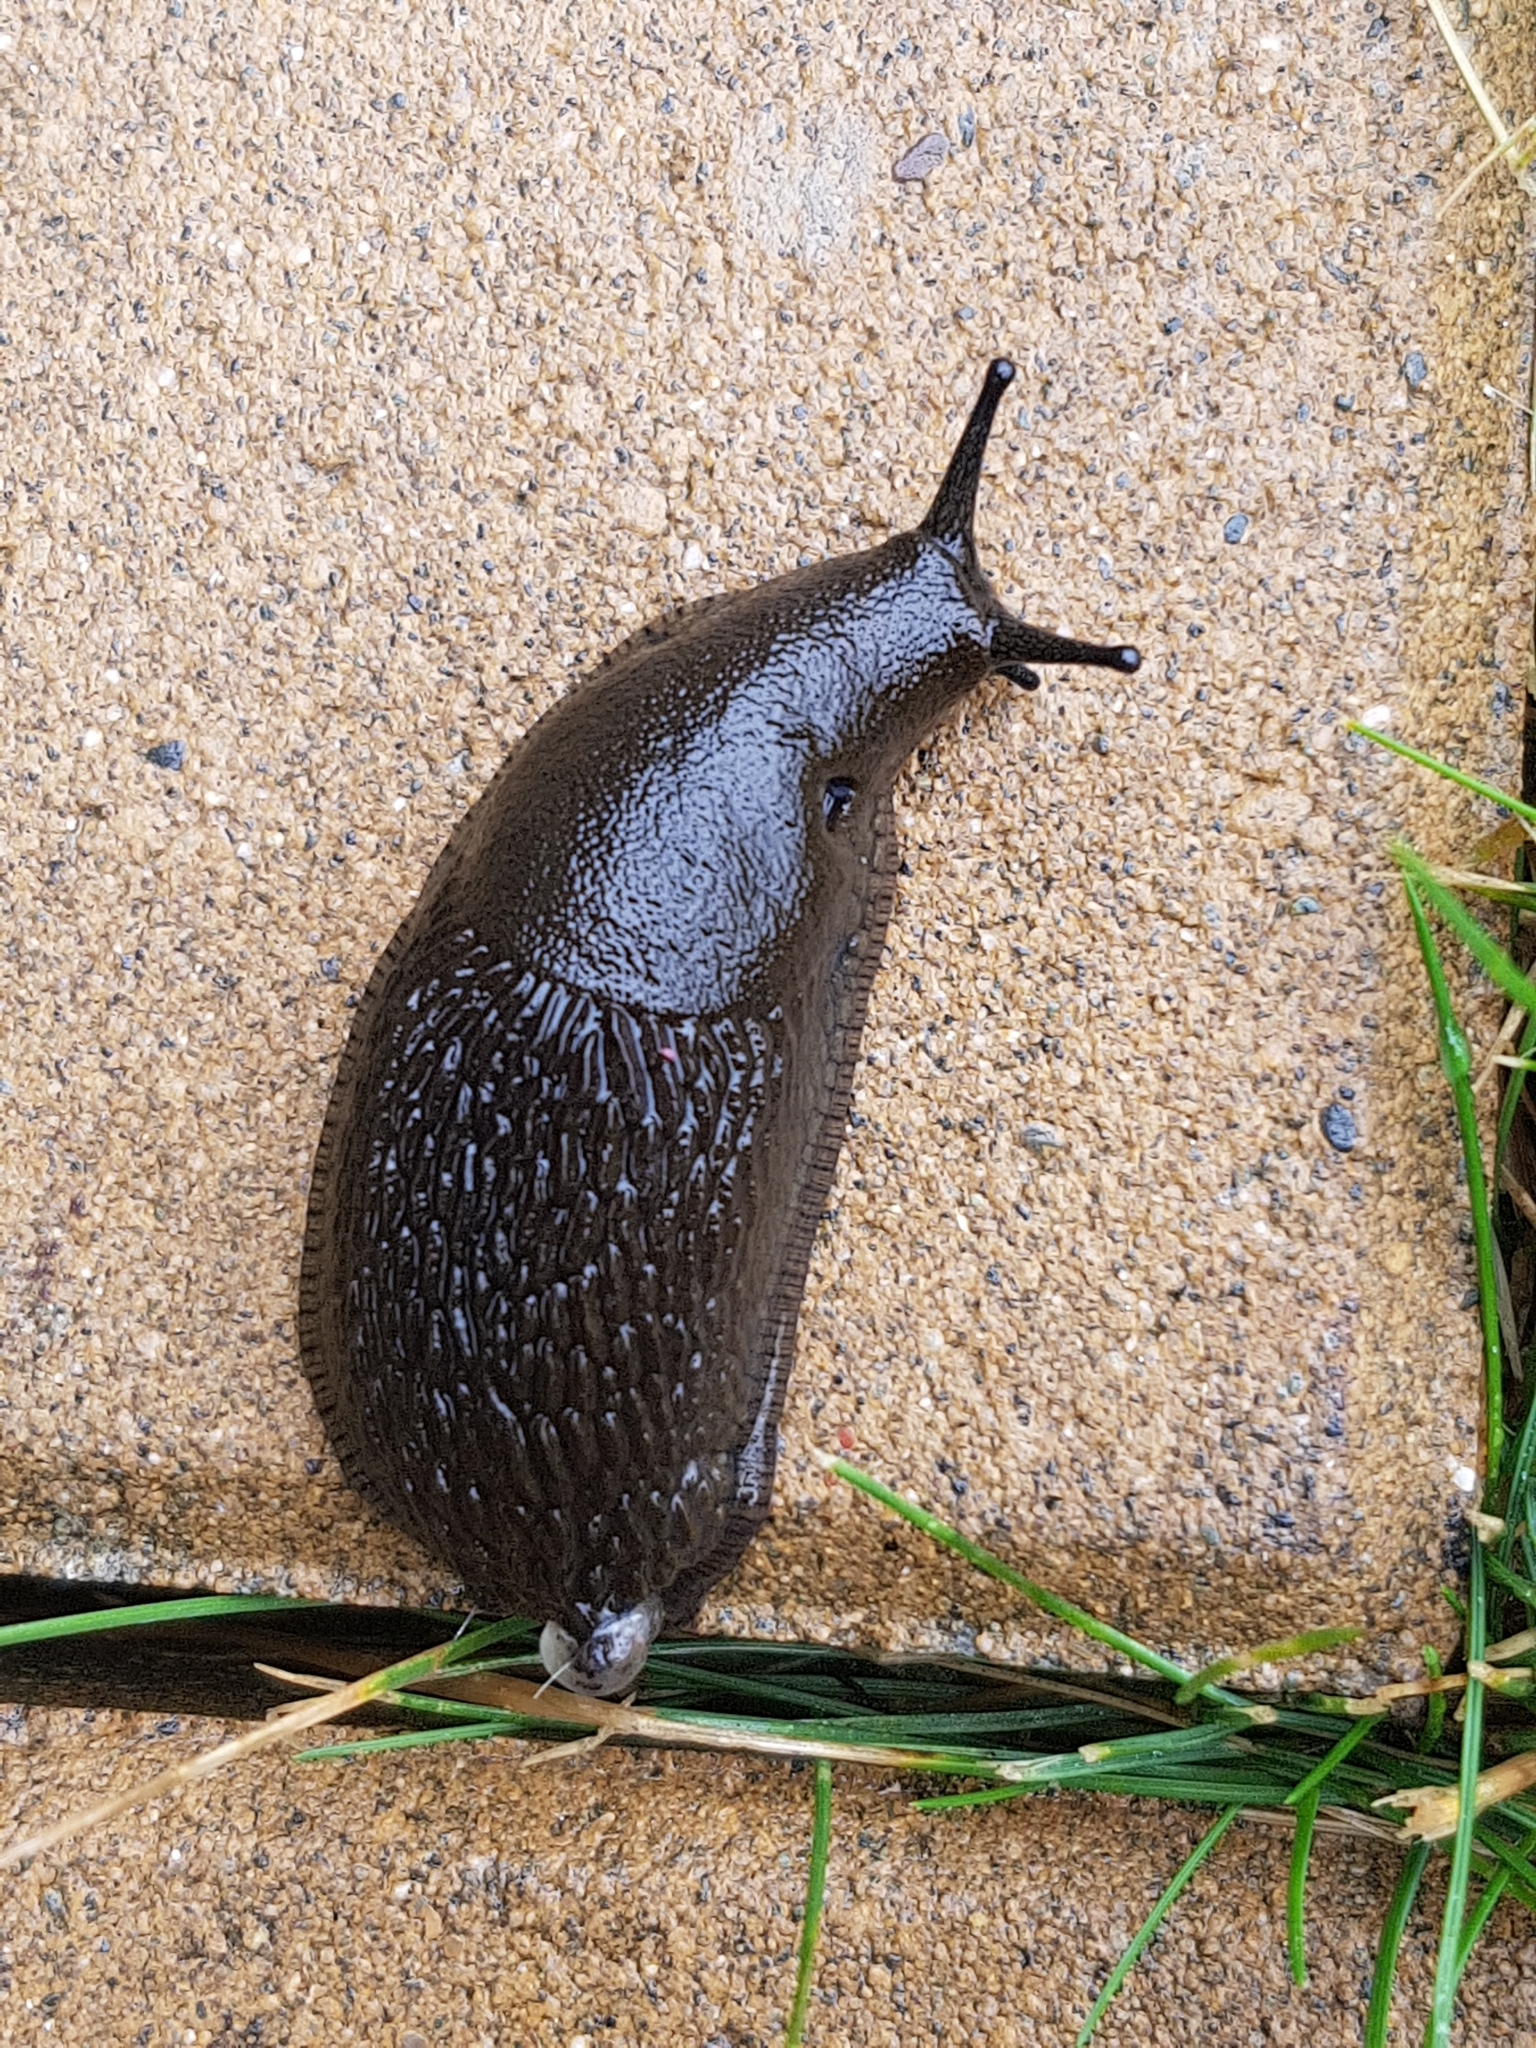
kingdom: Animalia
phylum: Mollusca
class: Gastropoda
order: Stylommatophora
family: Arionidae
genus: Arion
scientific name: Arion rufus
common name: Chocolate arion
